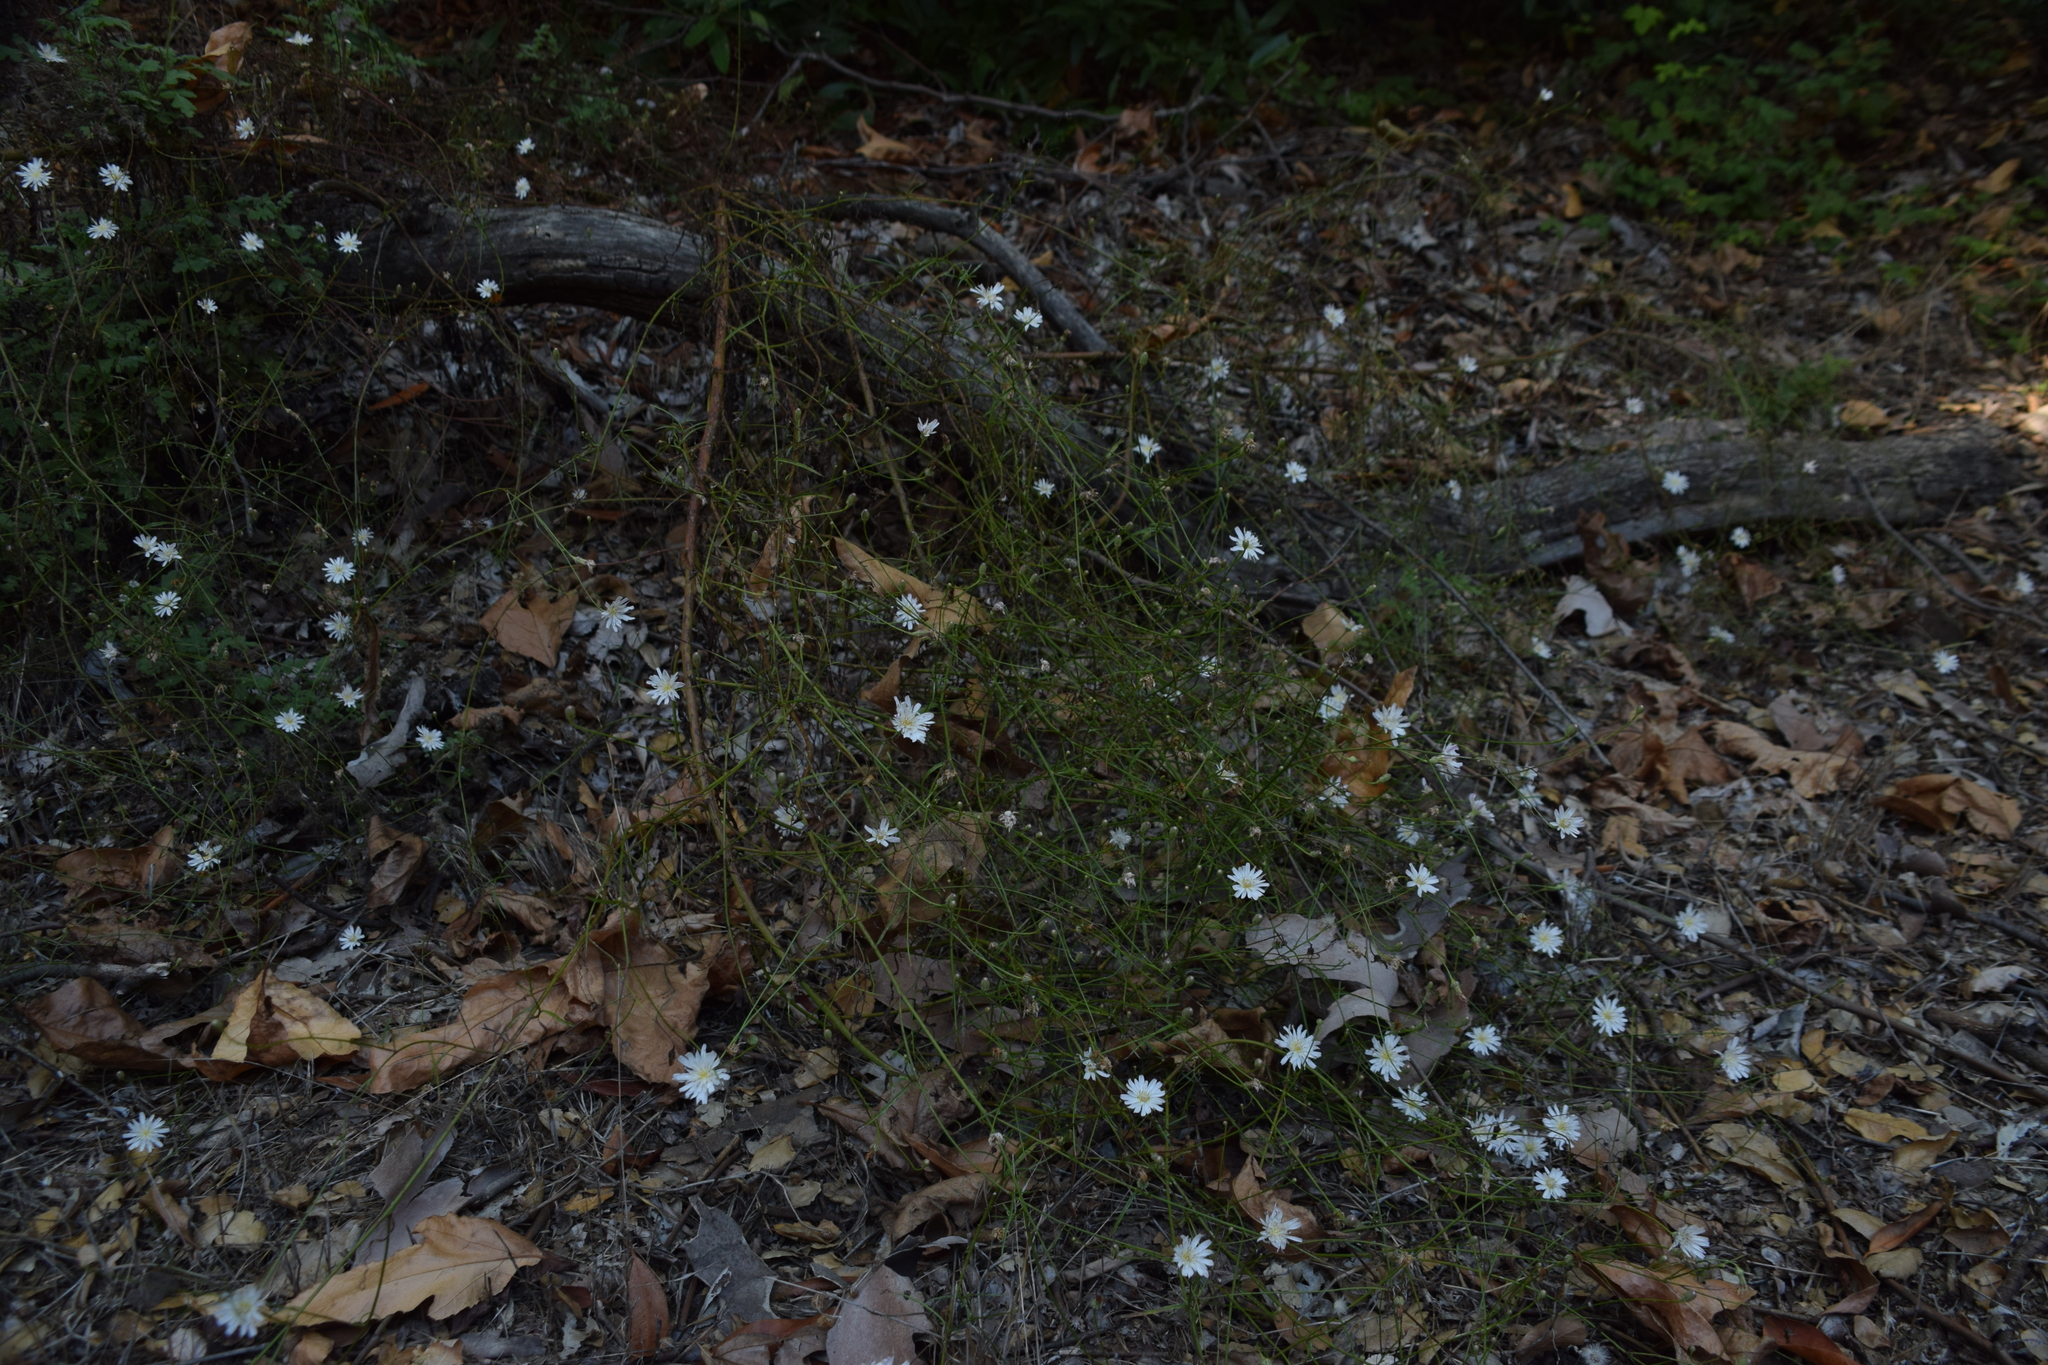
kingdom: Plantae
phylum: Tracheophyta
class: Magnoliopsida
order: Asterales
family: Asteraceae
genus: Malacothrix
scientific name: Malacothrix saxatilis
